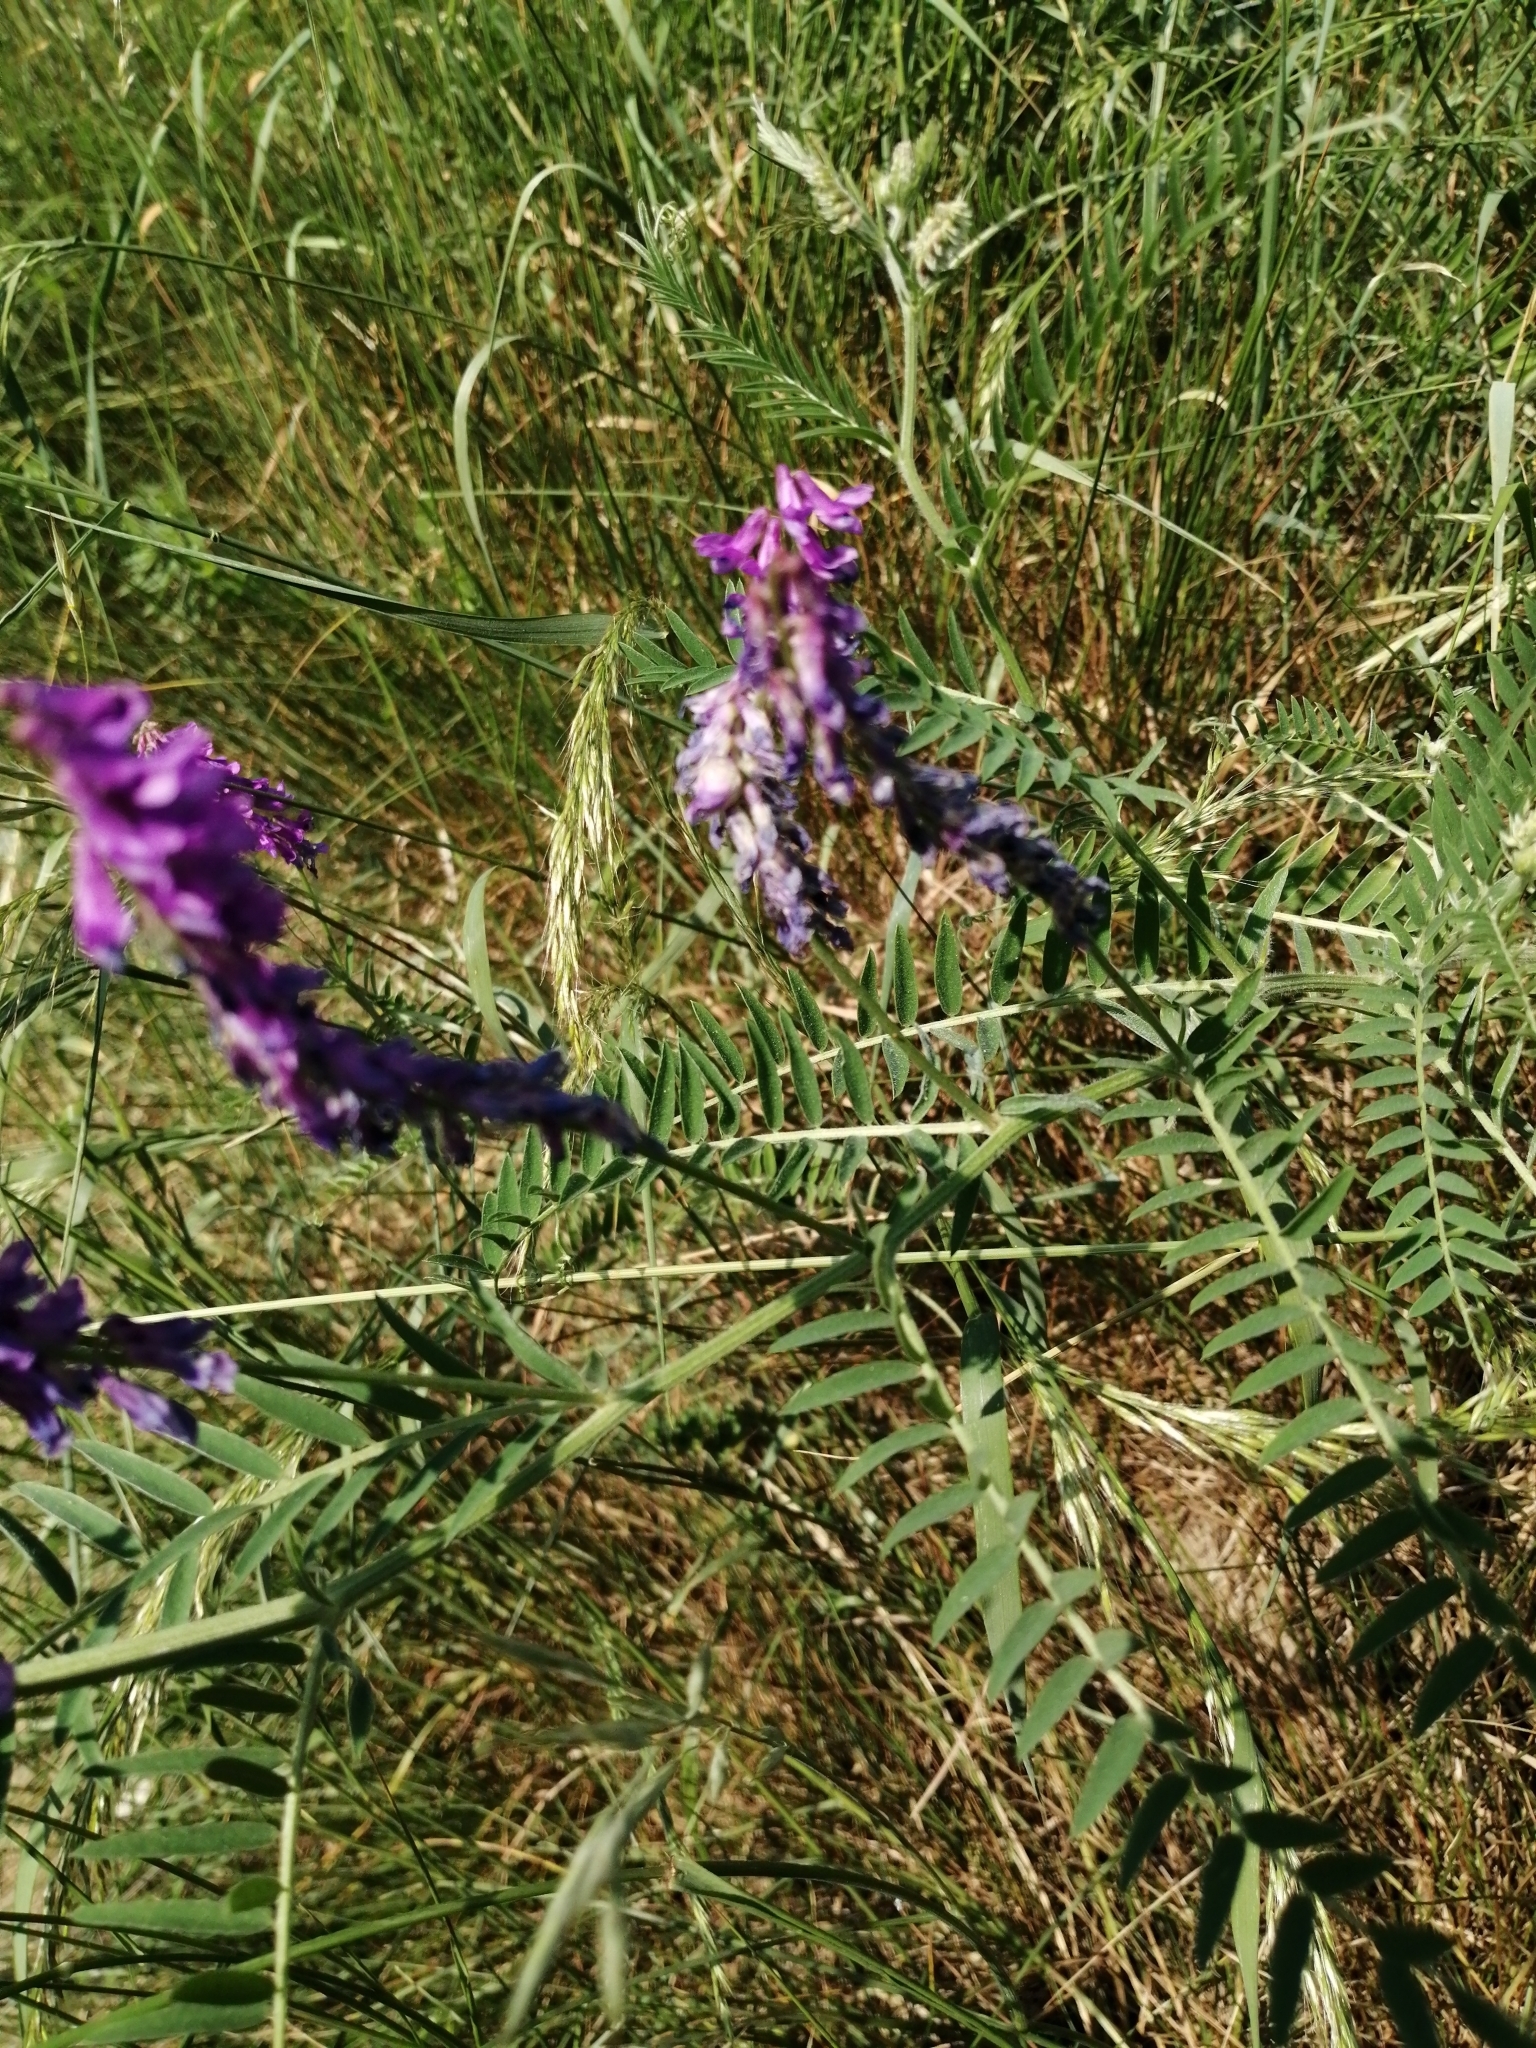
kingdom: Plantae
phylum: Tracheophyta
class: Magnoliopsida
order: Fabales
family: Fabaceae
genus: Vicia
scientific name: Vicia cracca
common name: Bird vetch
